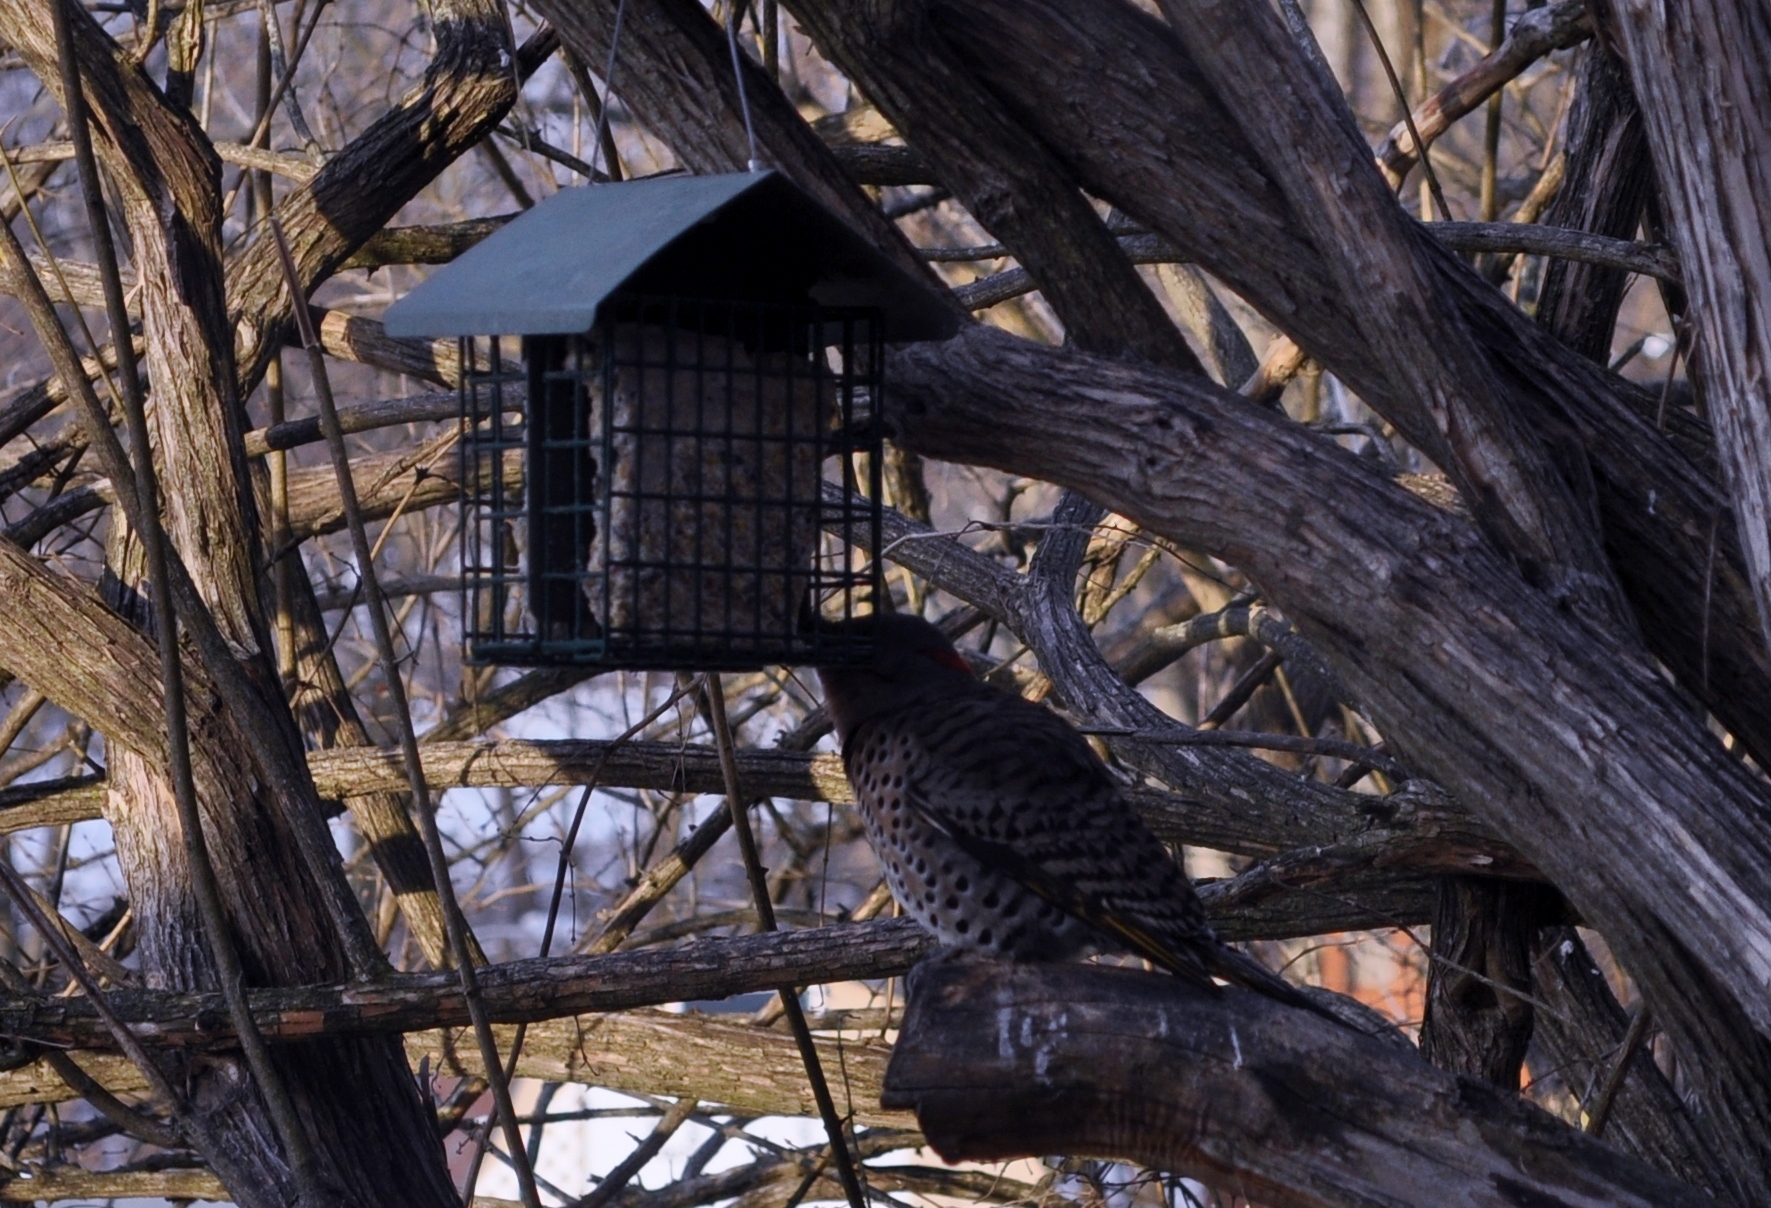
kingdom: Animalia
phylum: Chordata
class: Aves
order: Piciformes
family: Picidae
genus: Colaptes
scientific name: Colaptes auratus
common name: Northern flicker
